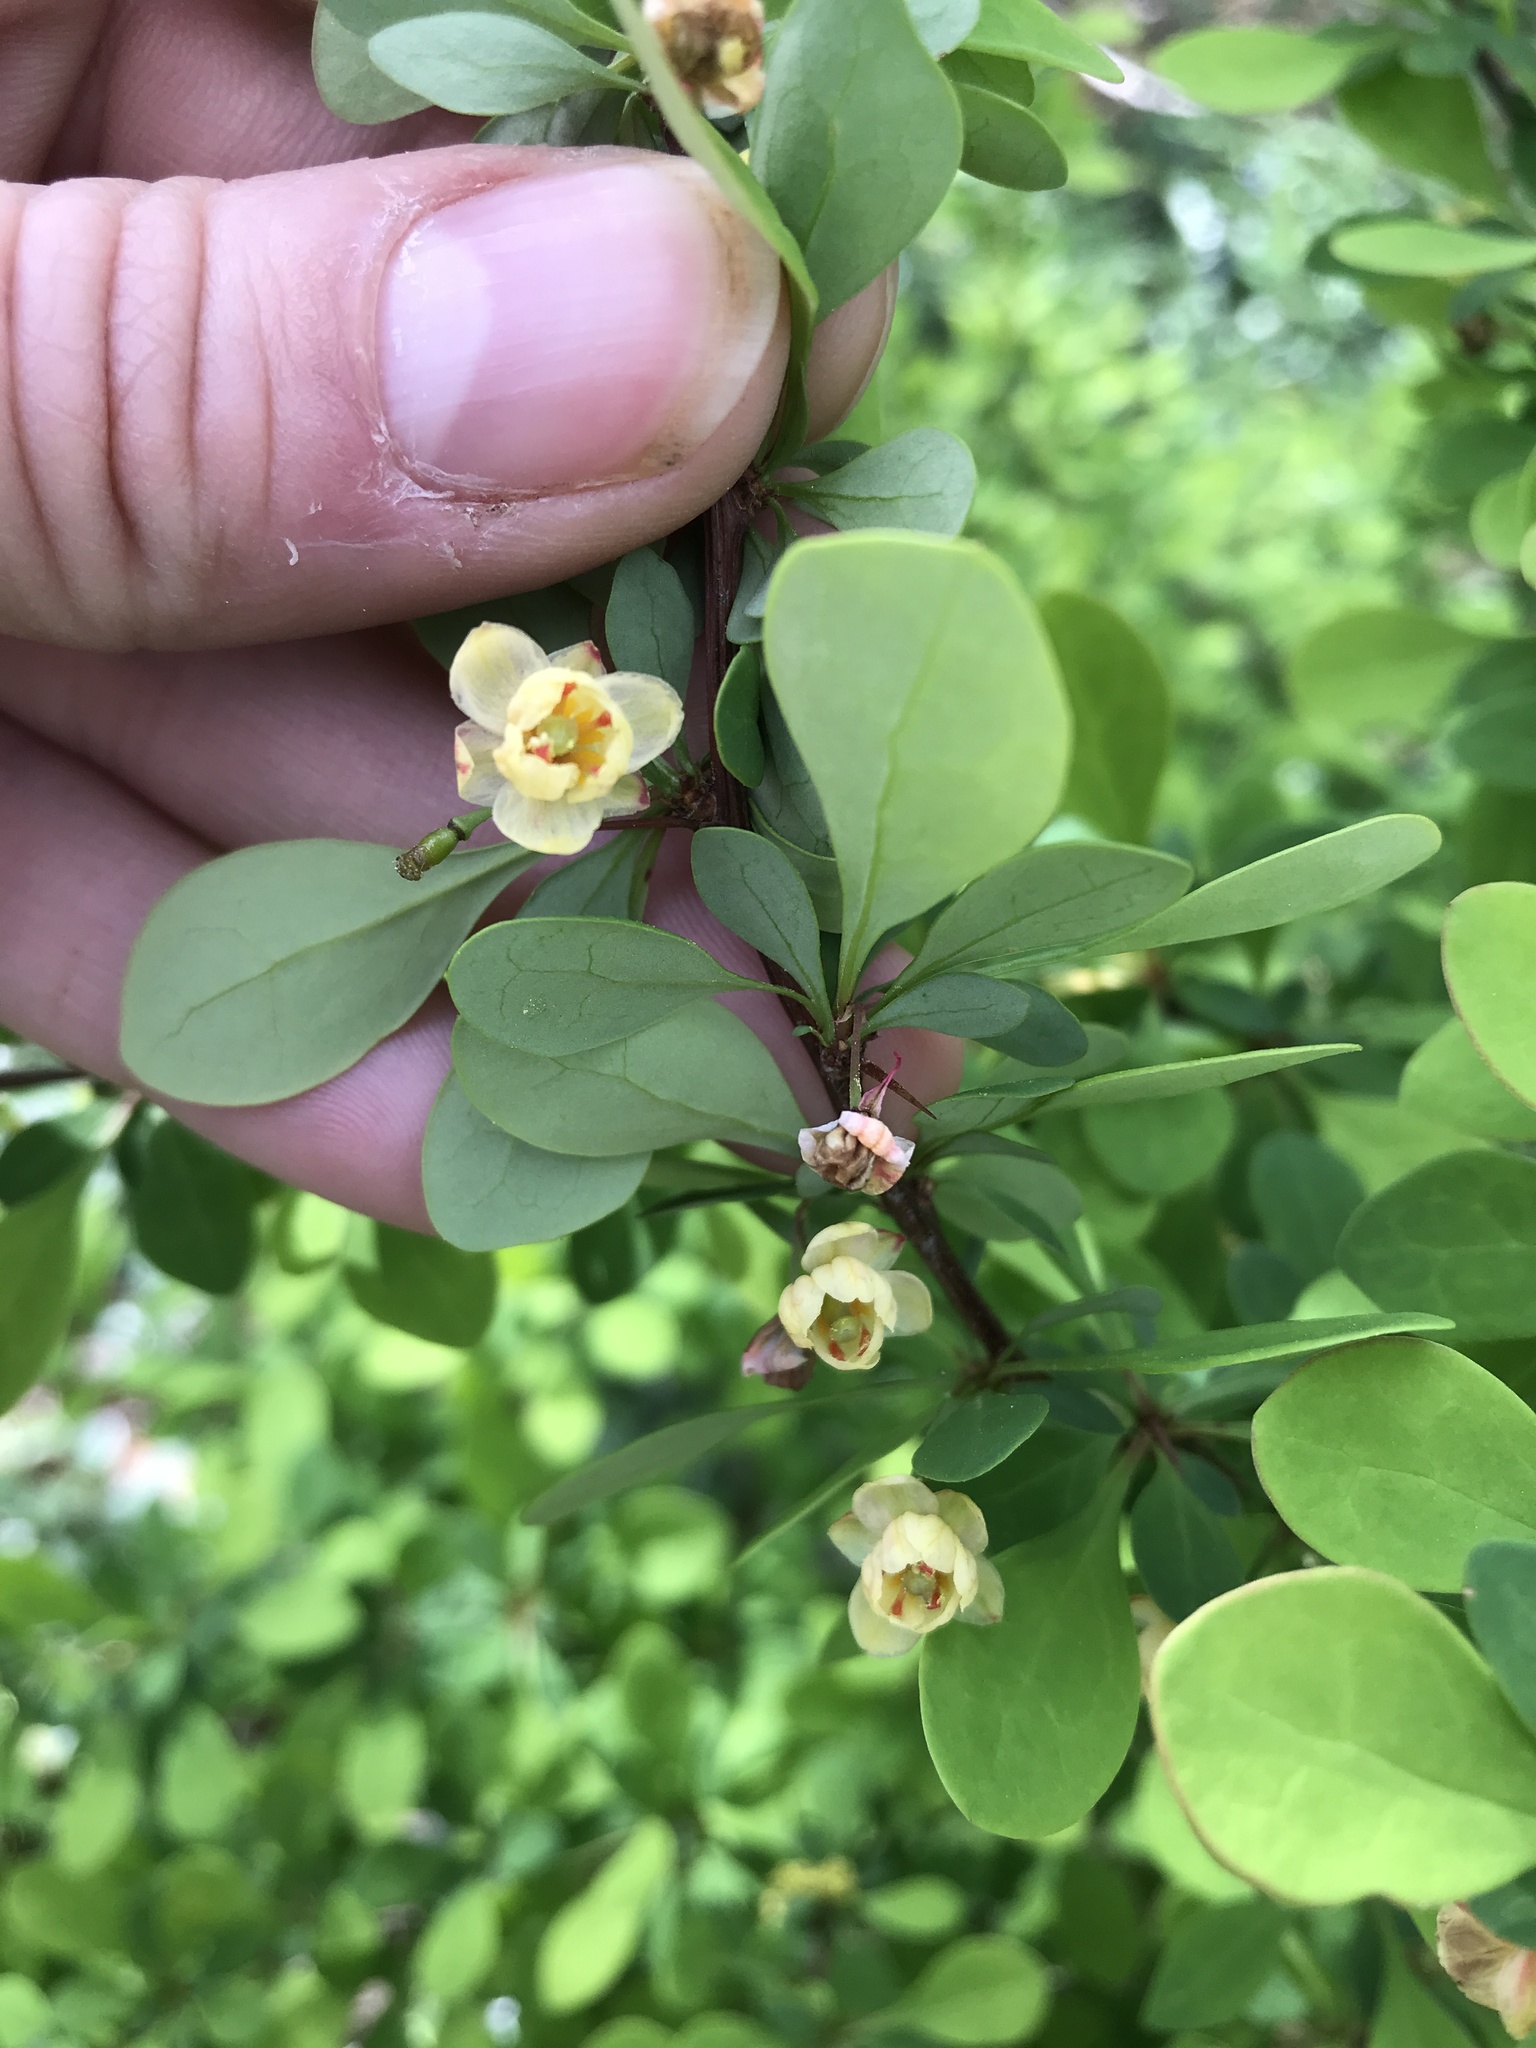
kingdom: Plantae
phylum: Tracheophyta
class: Magnoliopsida
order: Ranunculales
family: Berberidaceae
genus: Berberis
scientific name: Berberis thunbergii
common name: Japanese barberry
